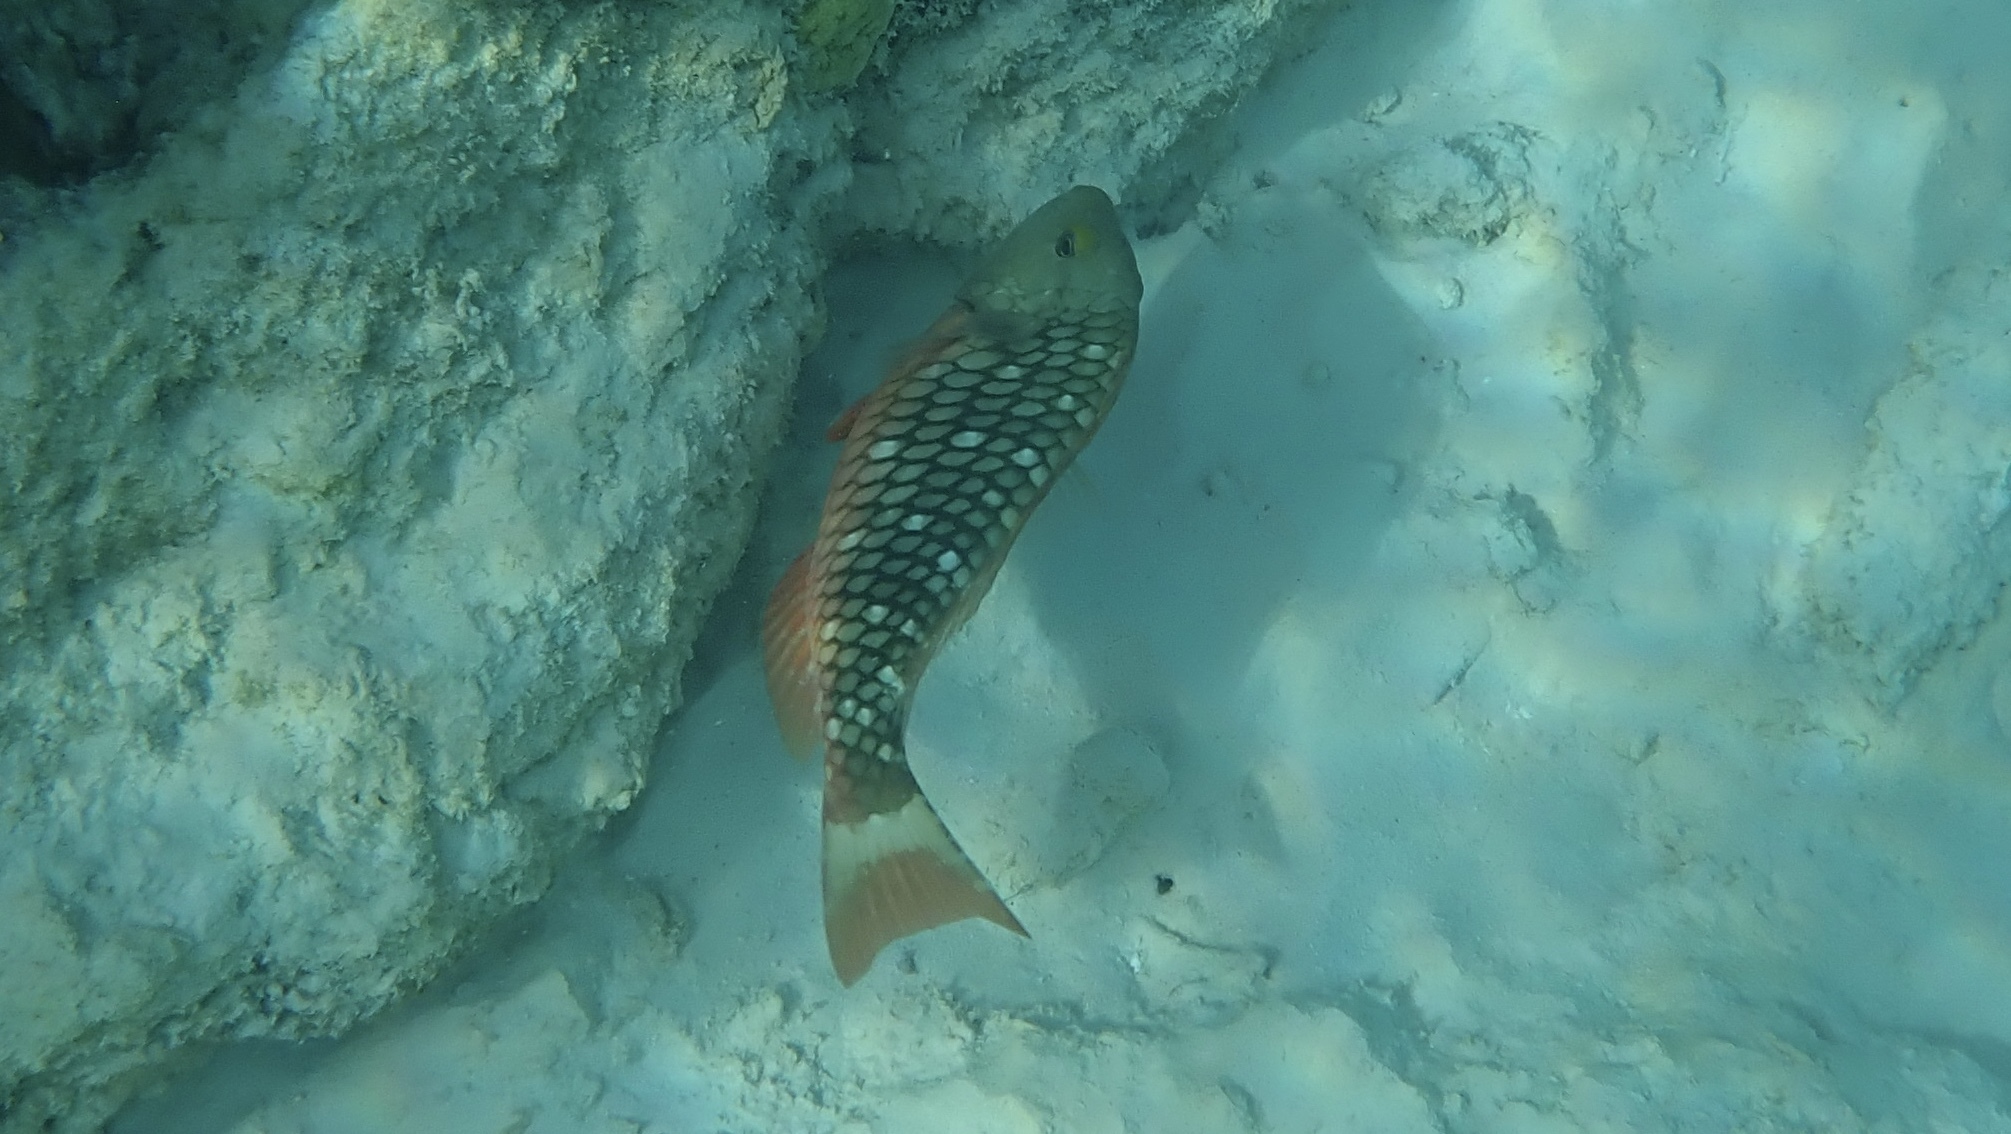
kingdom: Animalia
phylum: Chordata
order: Perciformes
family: Scaridae
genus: Sparisoma
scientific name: Sparisoma viride
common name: Stoplight parrotfish
